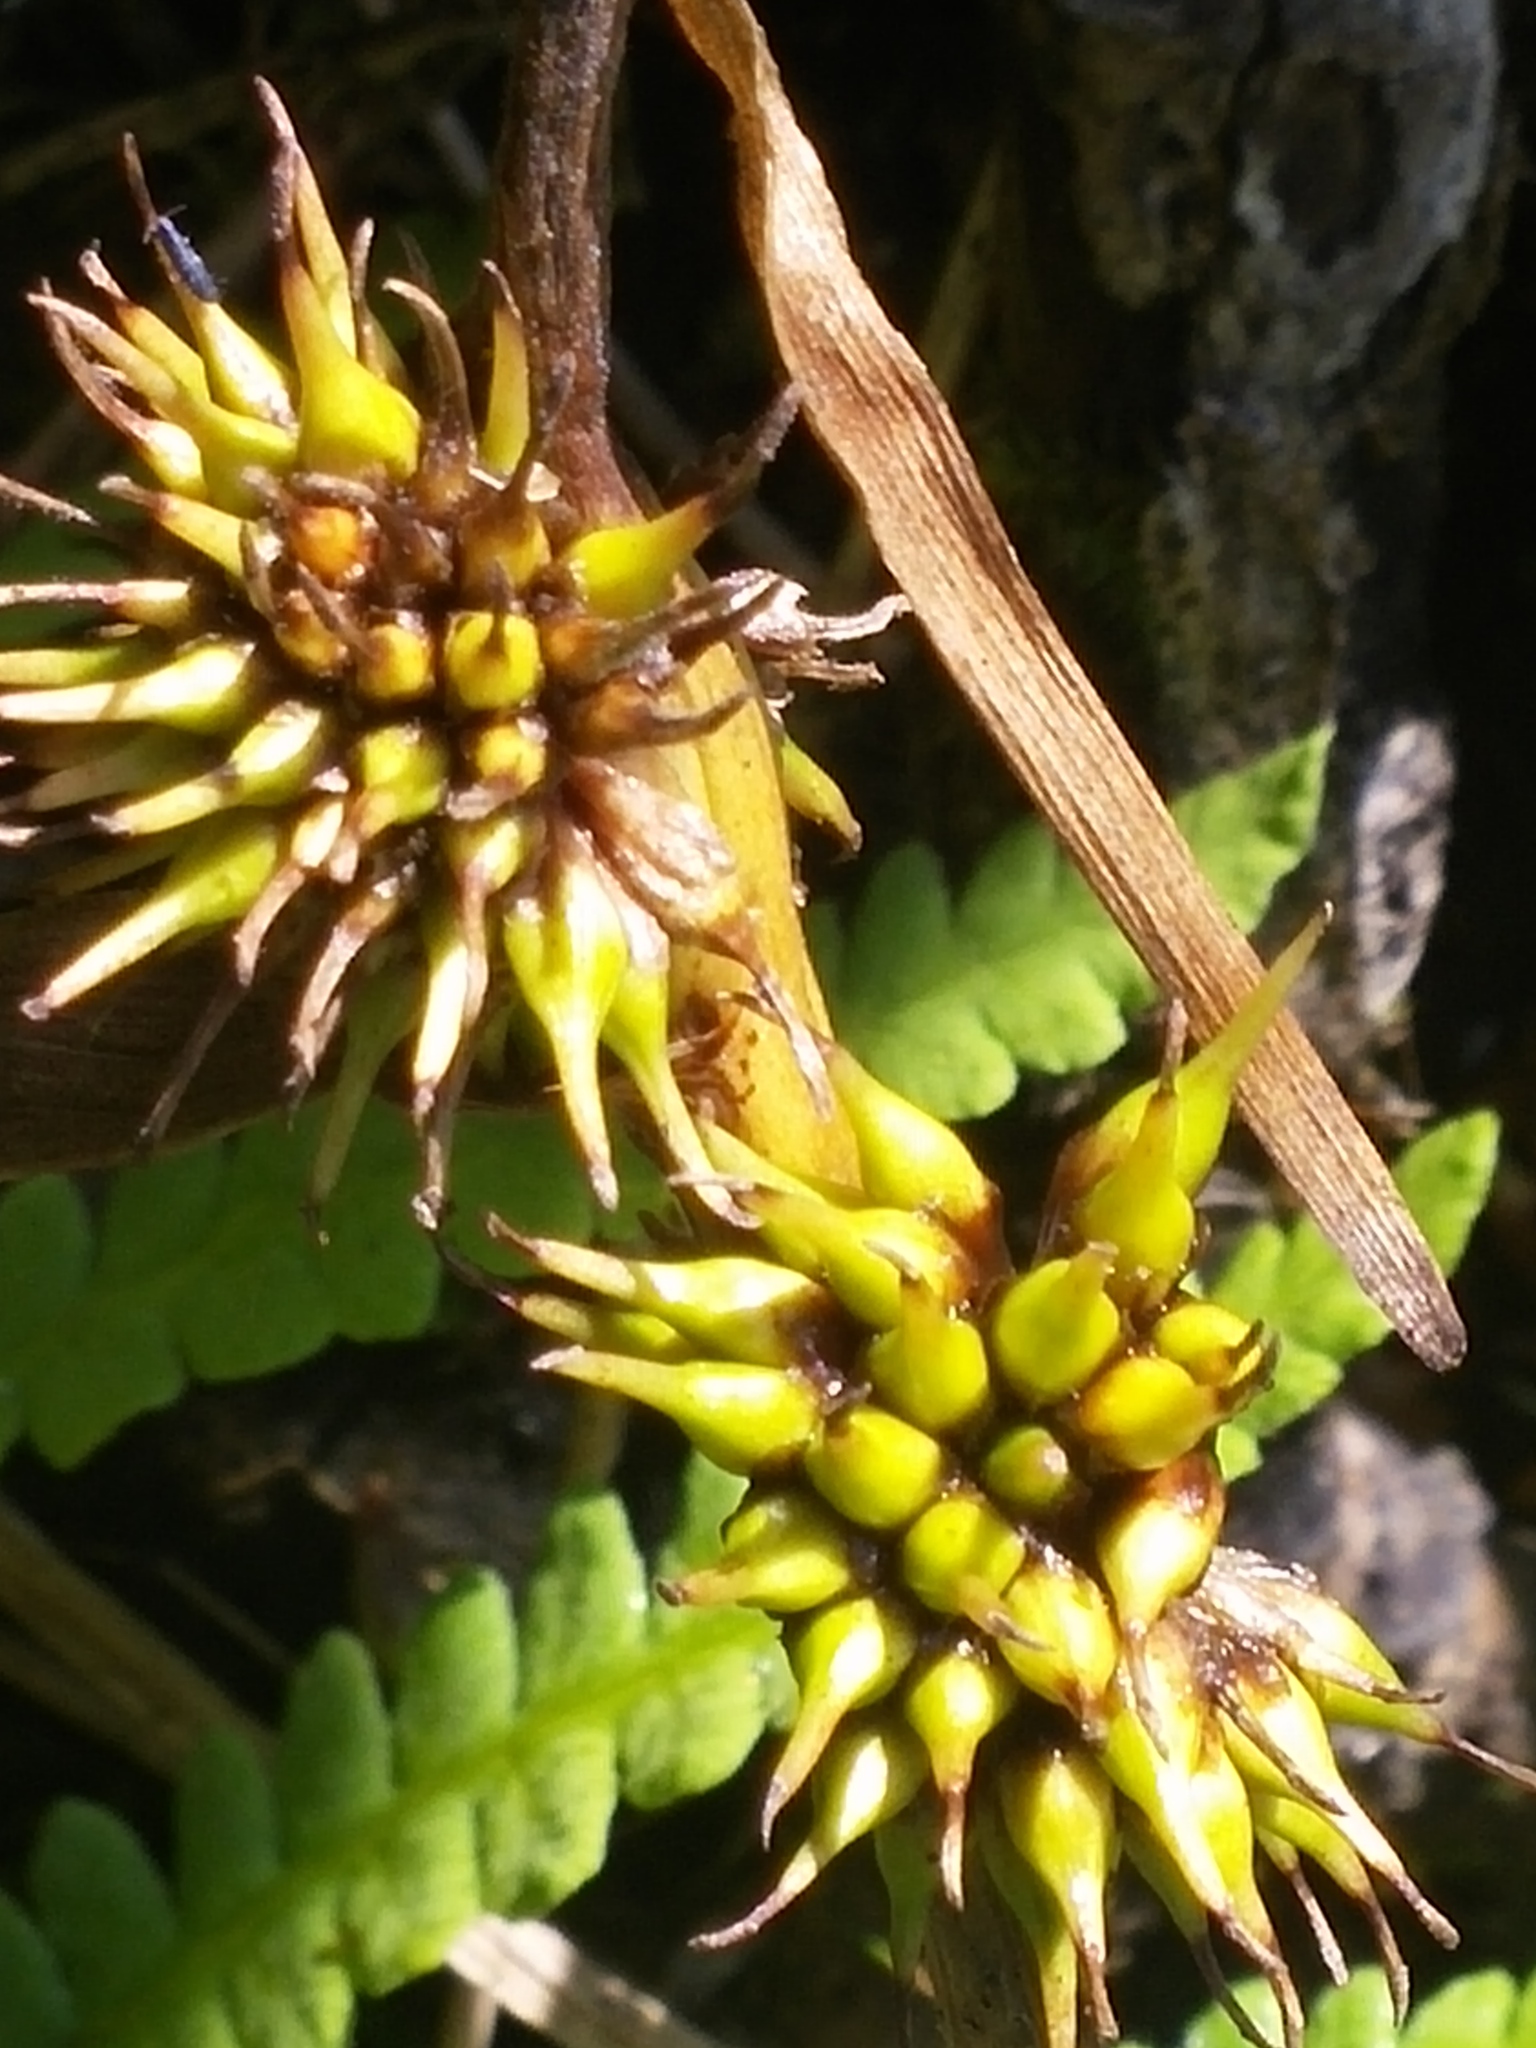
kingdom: Plantae
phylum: Tracheophyta
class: Liliopsida
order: Poales
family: Typhaceae
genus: Sparganium
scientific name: Sparganium emersum
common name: Unbranched bur-reed
